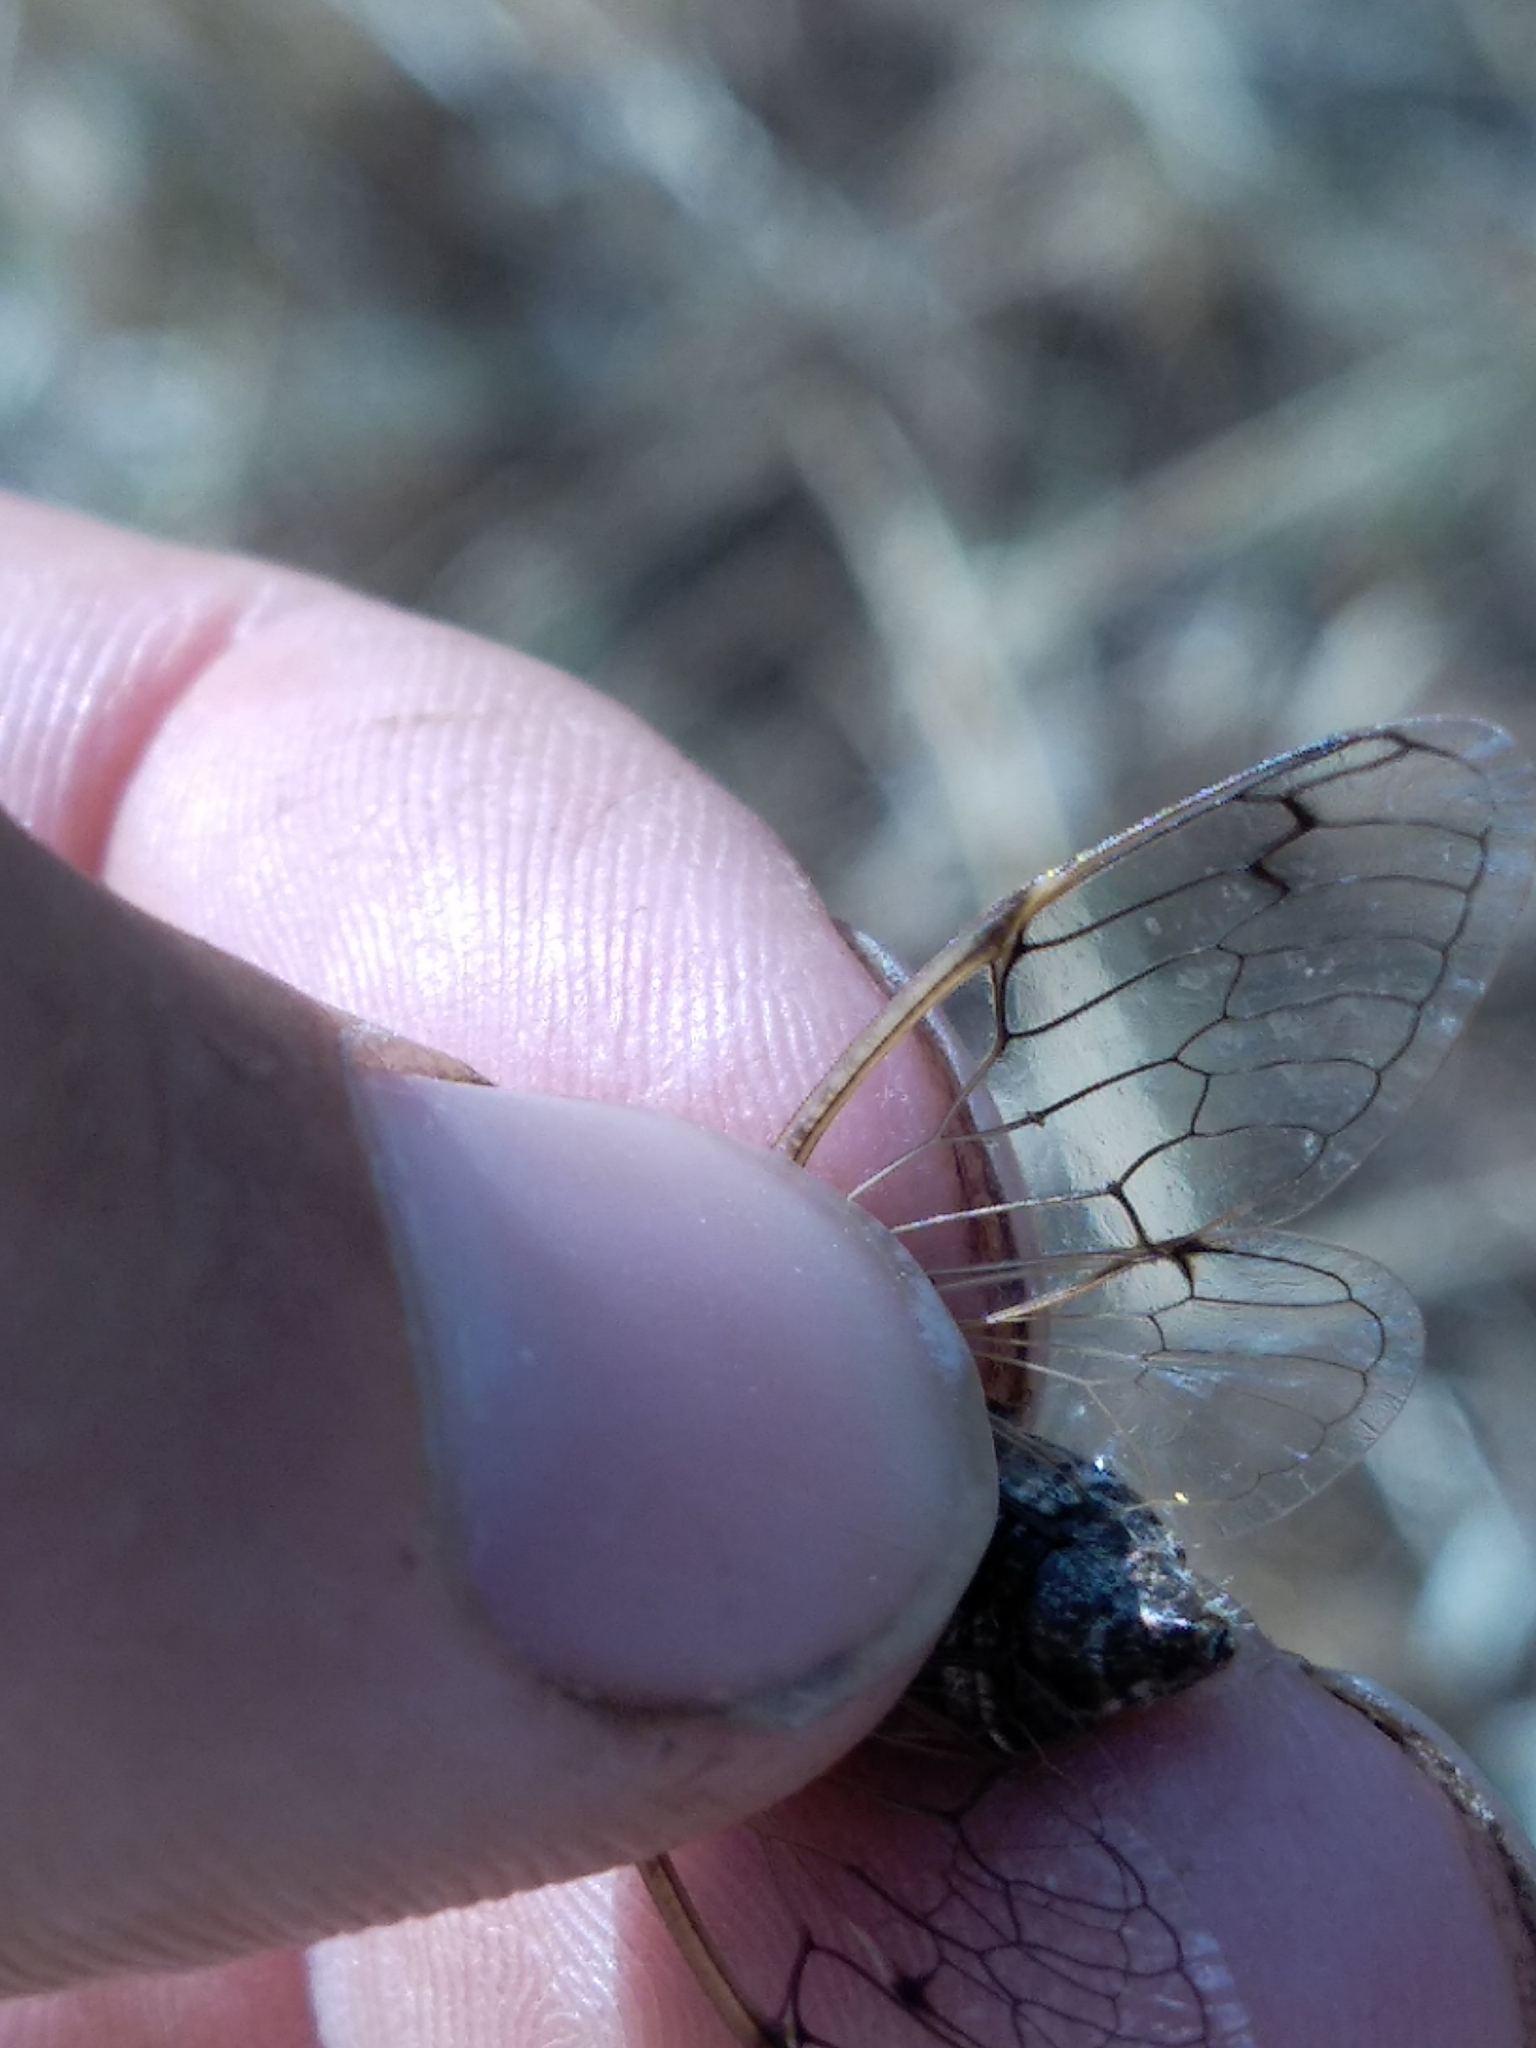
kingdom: Animalia
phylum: Arthropoda
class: Insecta
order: Hemiptera
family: Cicadidae
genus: Cicadatra
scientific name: Cicadatra atra
